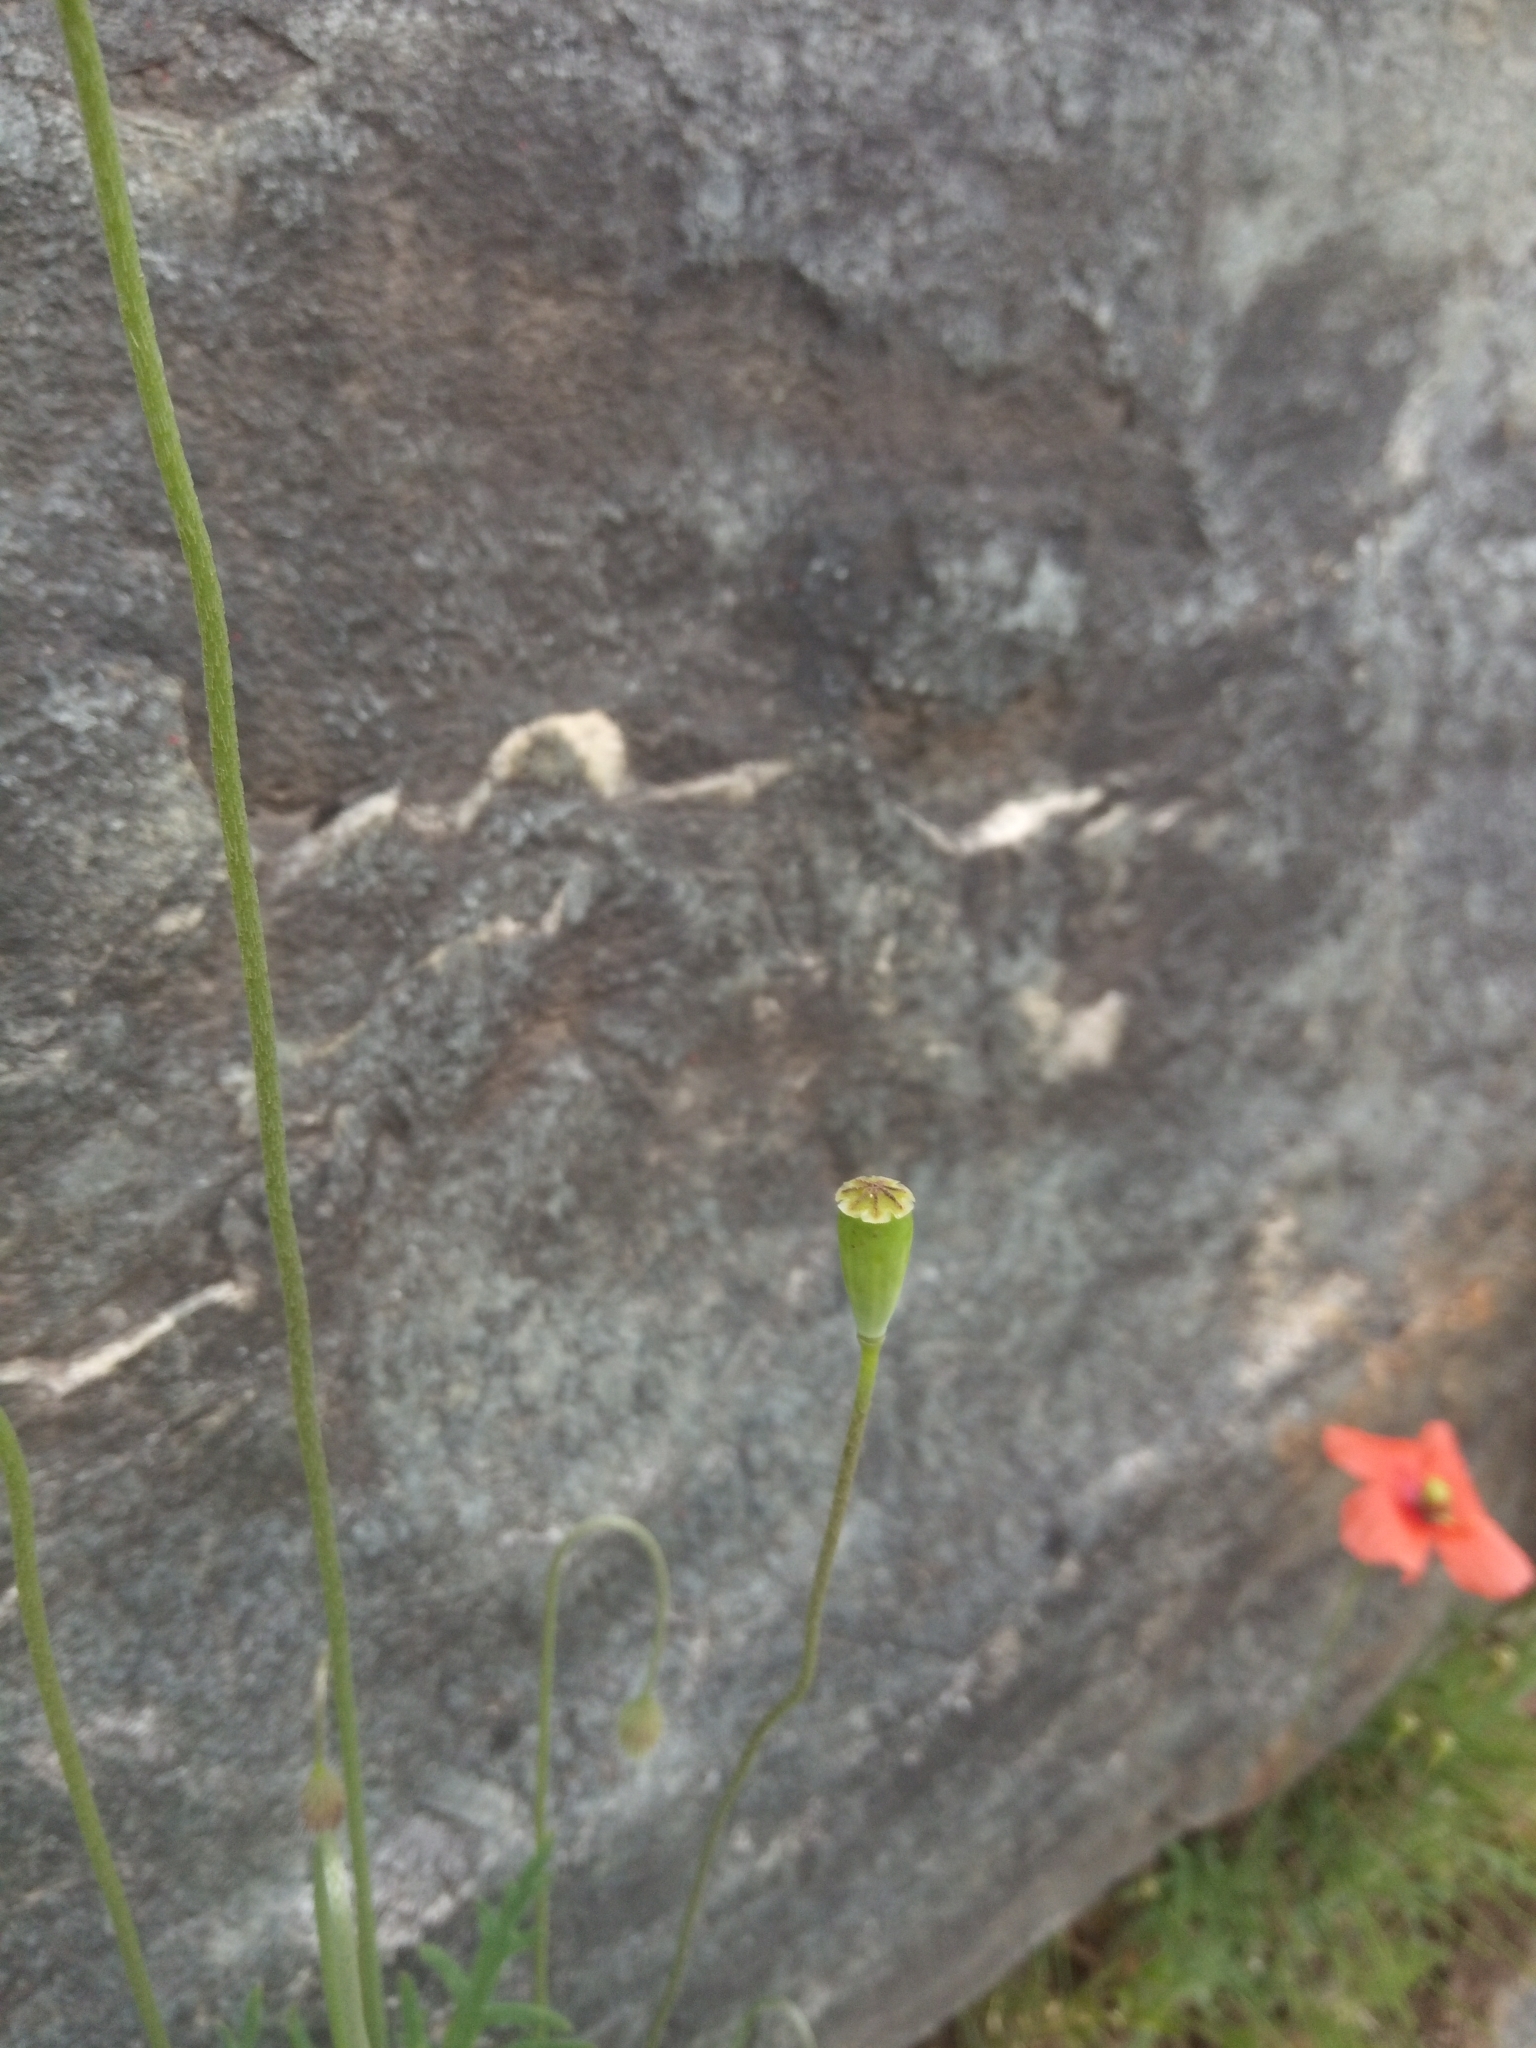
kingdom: Plantae
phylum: Tracheophyta
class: Magnoliopsida
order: Ranunculales
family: Papaveraceae
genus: Papaver
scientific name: Papaver rhoeas
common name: Corn poppy
